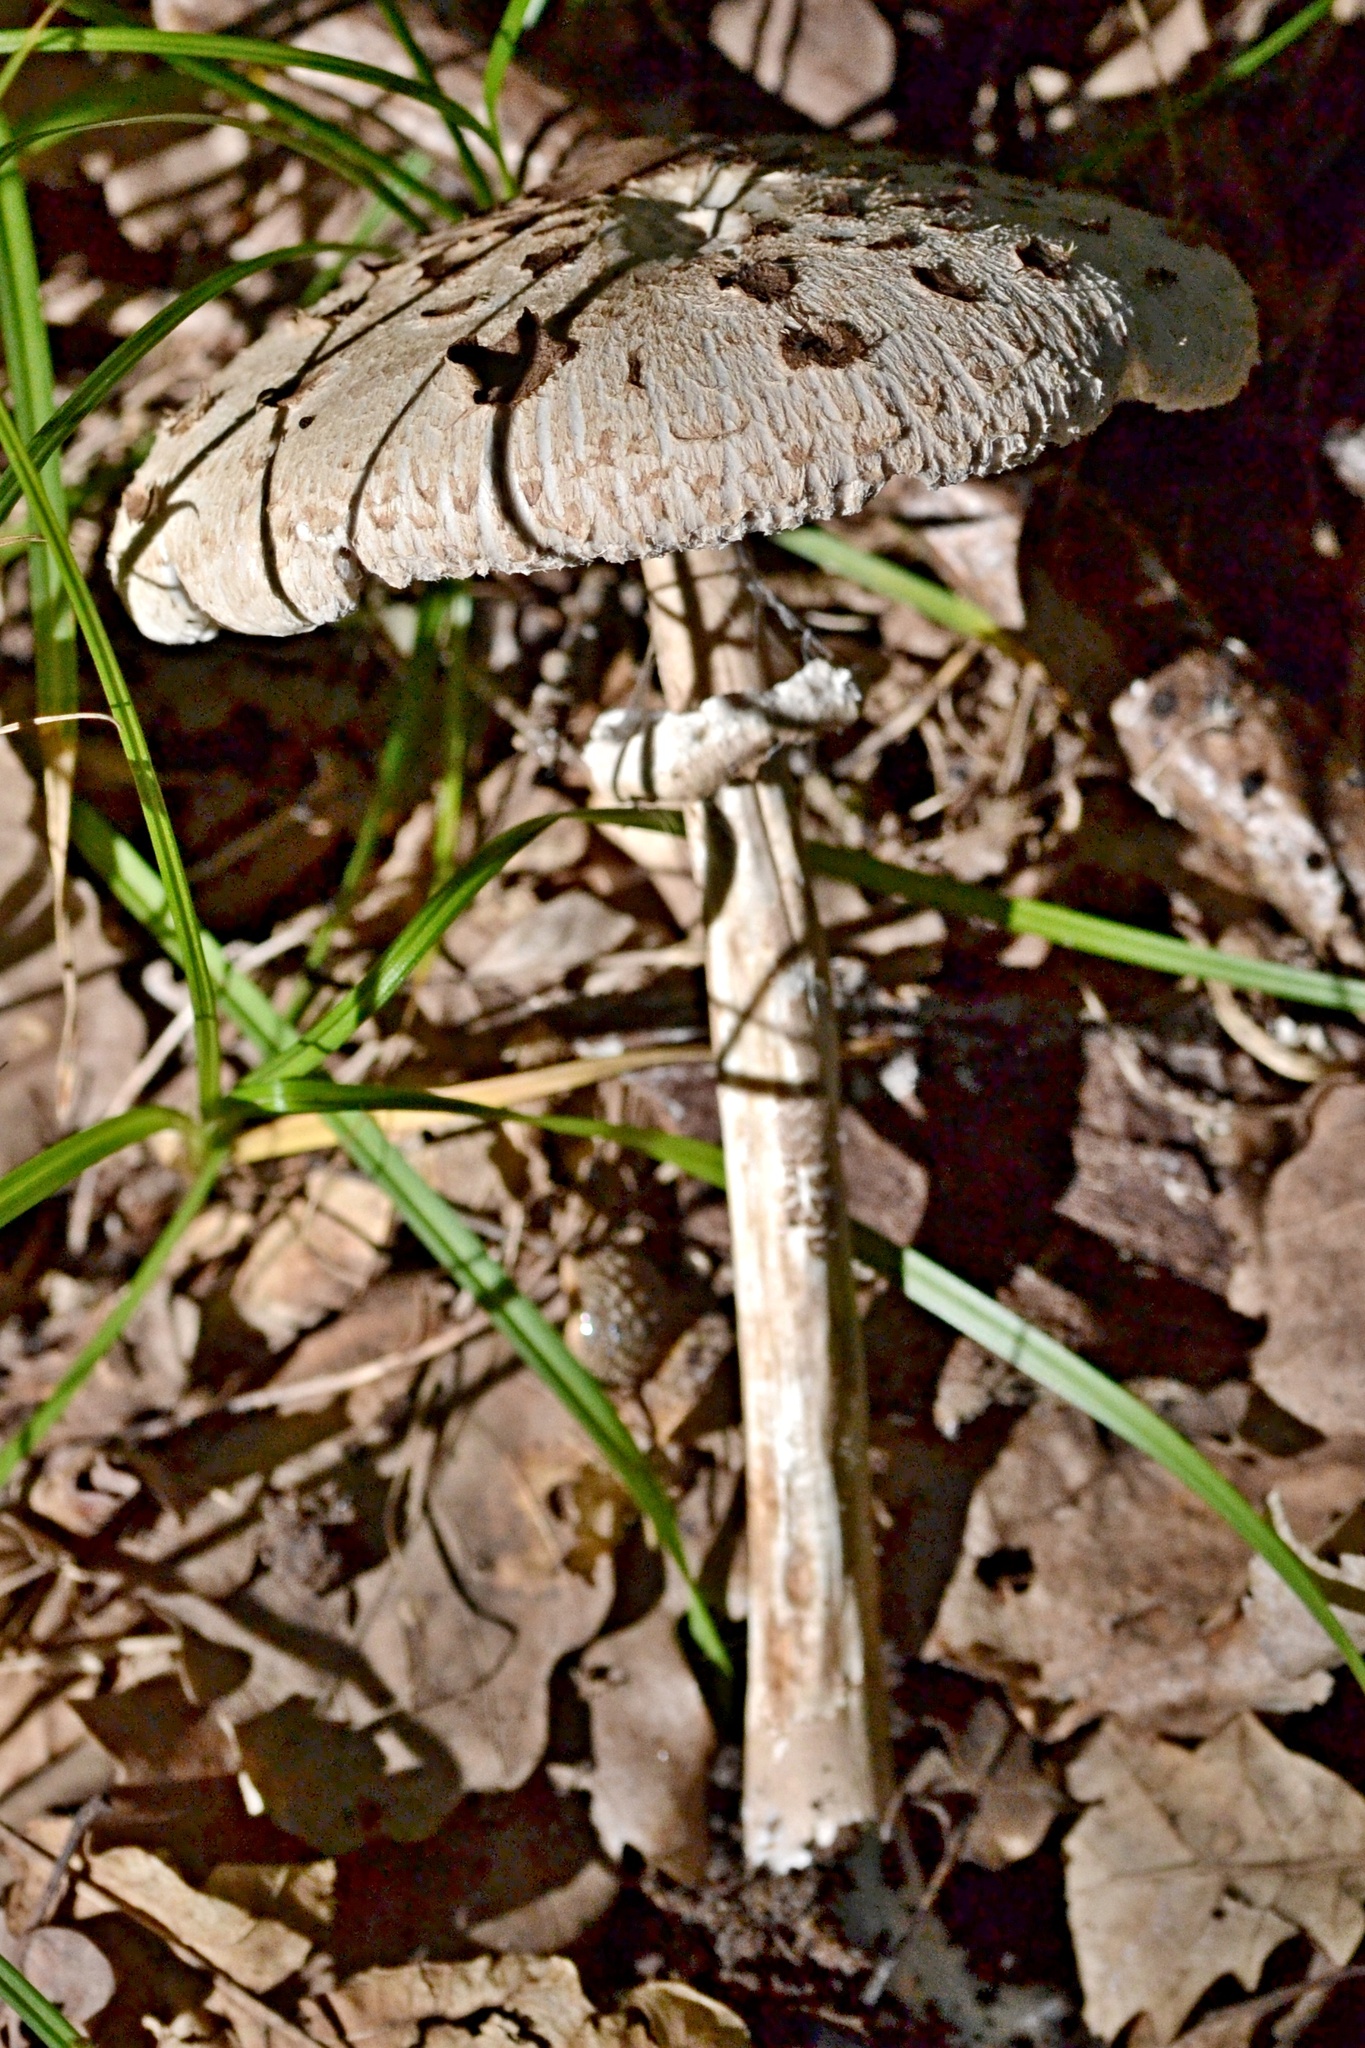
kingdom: Fungi
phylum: Basidiomycota
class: Agaricomycetes
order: Agaricales
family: Agaricaceae
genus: Macrolepiota
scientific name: Macrolepiota procera
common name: Parasol
